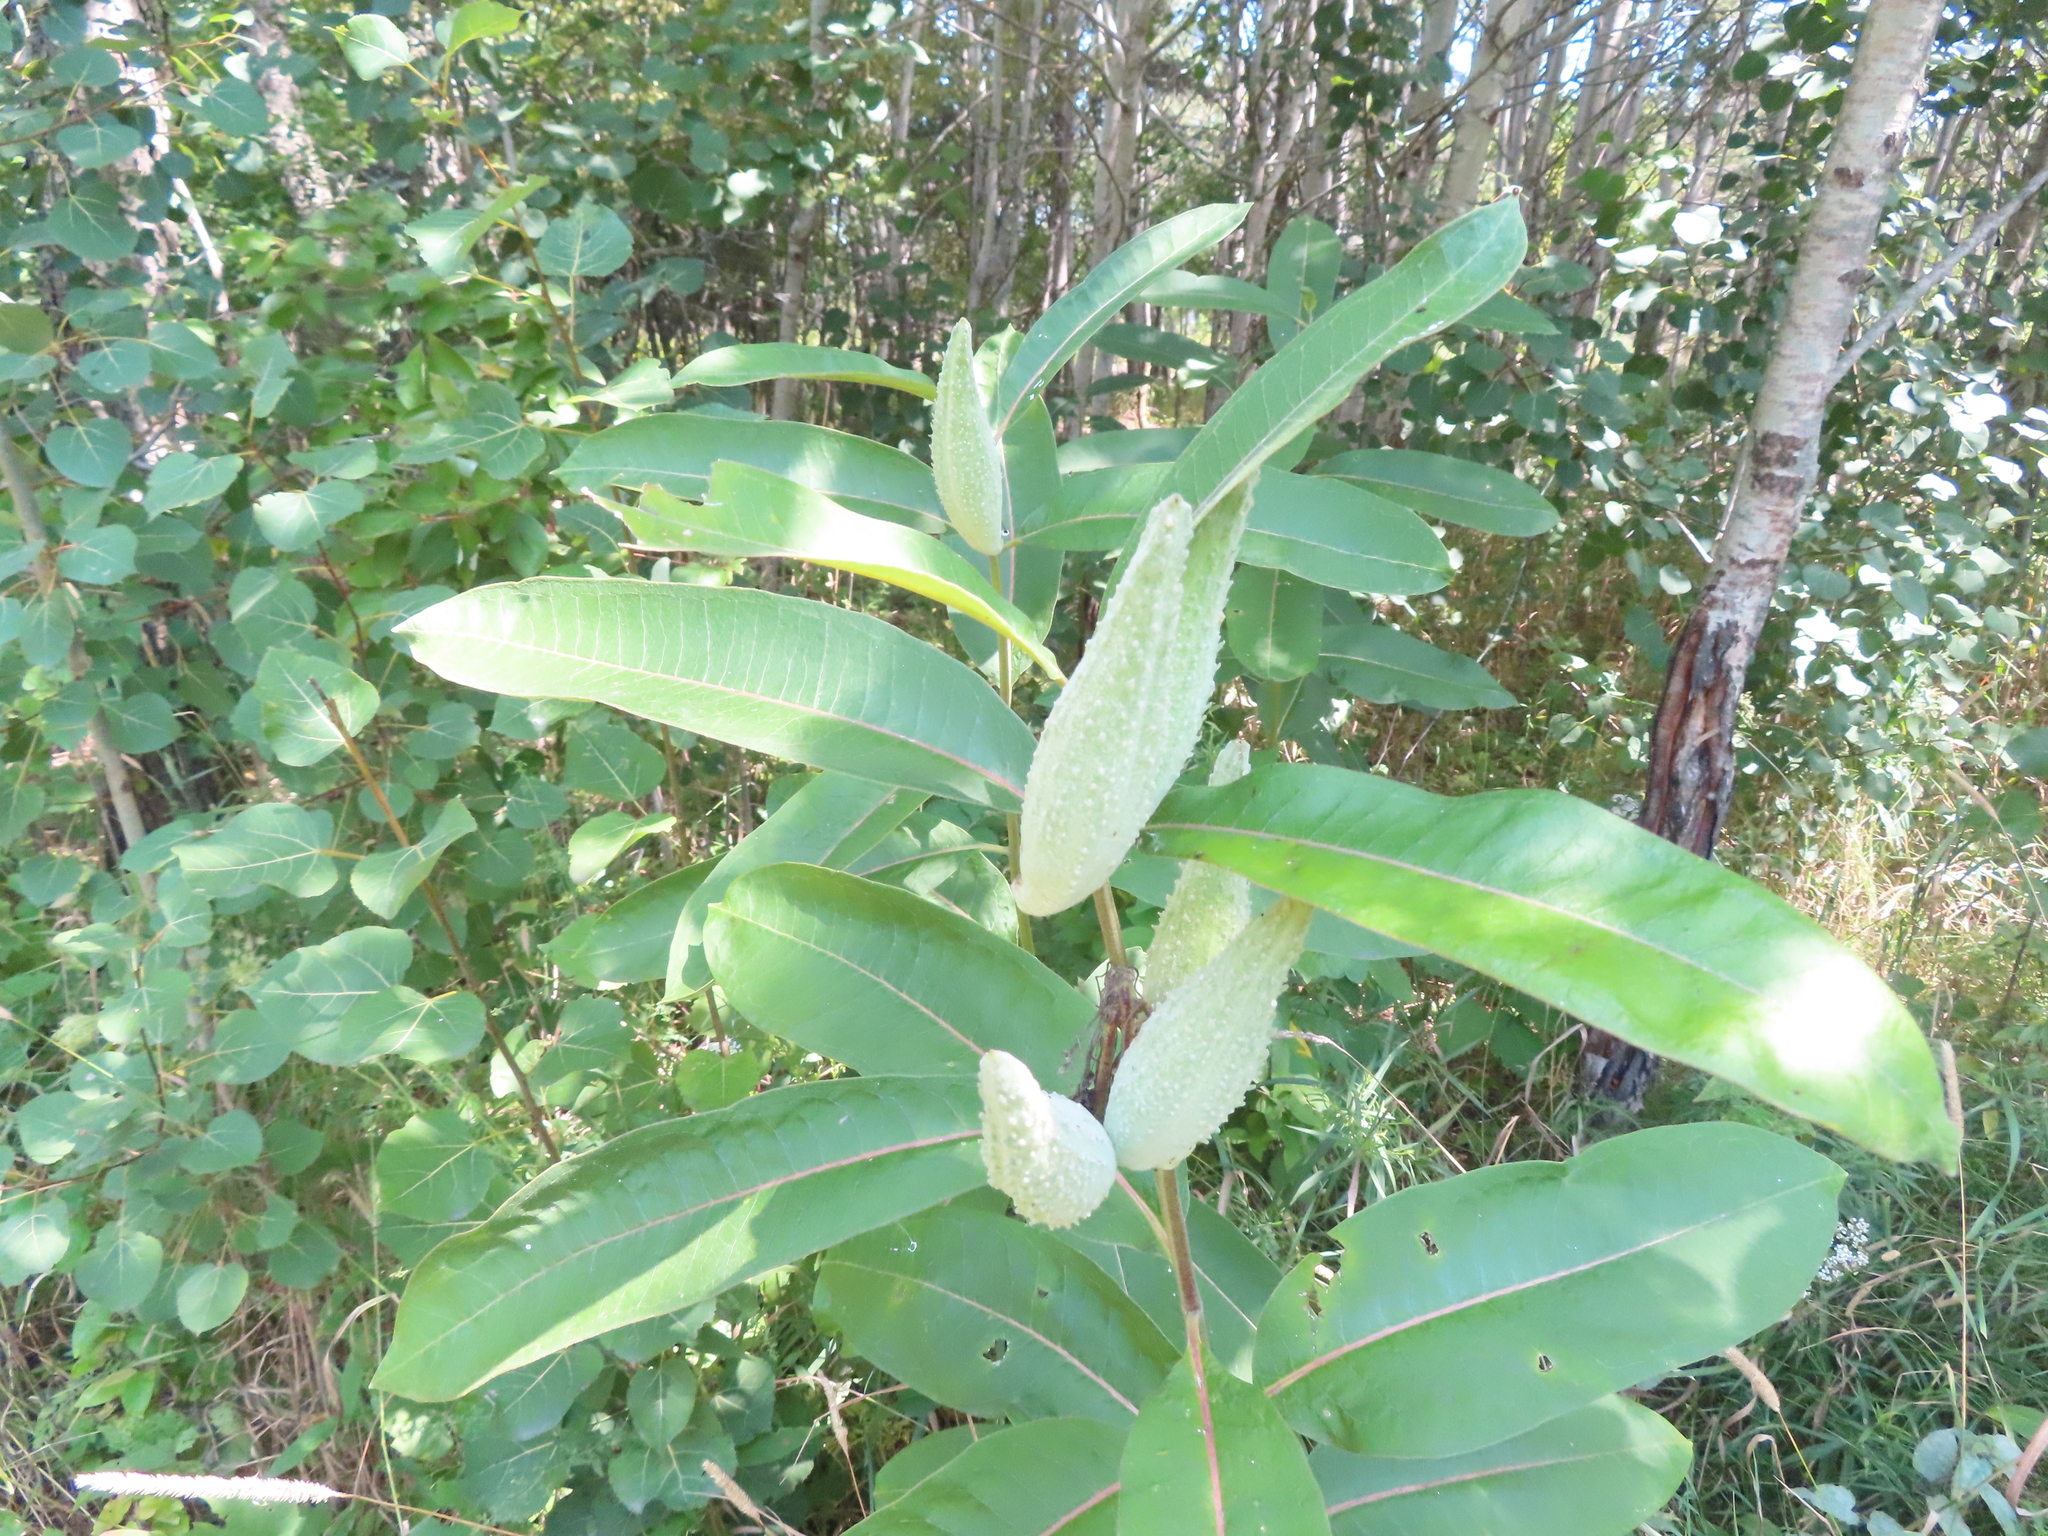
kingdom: Plantae
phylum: Tracheophyta
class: Magnoliopsida
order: Gentianales
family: Apocynaceae
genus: Asclepias
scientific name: Asclepias syriaca
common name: Common milkweed
